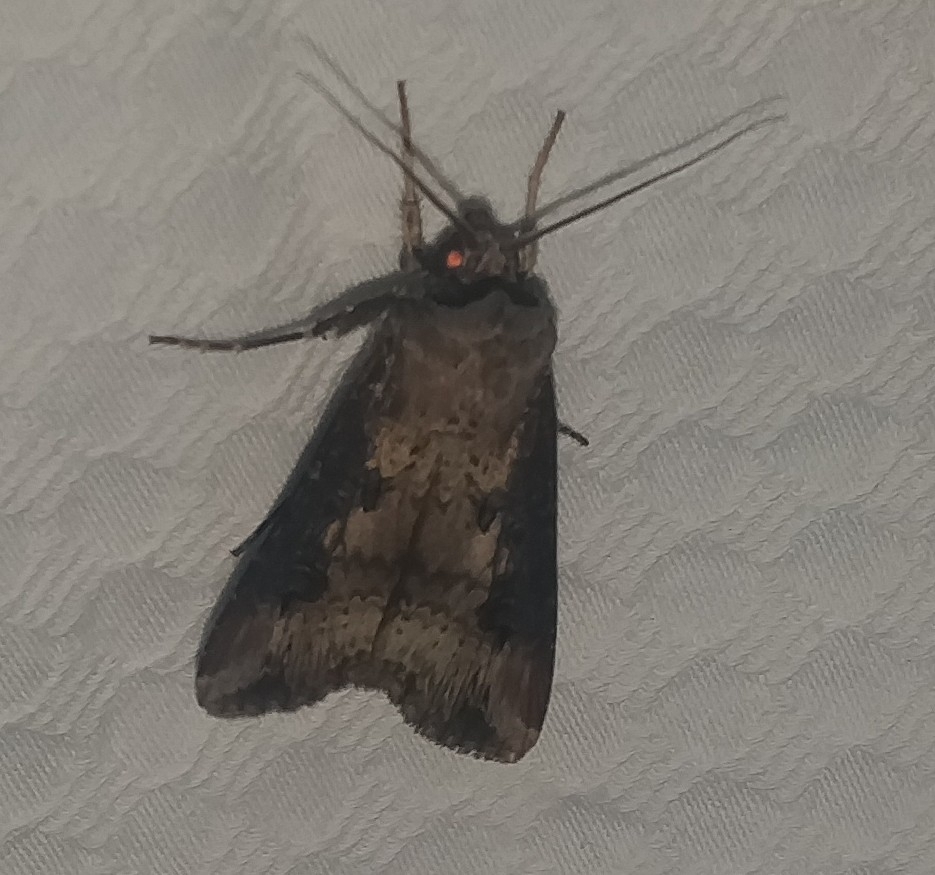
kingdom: Animalia
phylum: Arthropoda
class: Insecta
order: Lepidoptera
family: Noctuidae
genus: Agrotis
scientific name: Agrotis ipsilon
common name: Dark sword-grass
